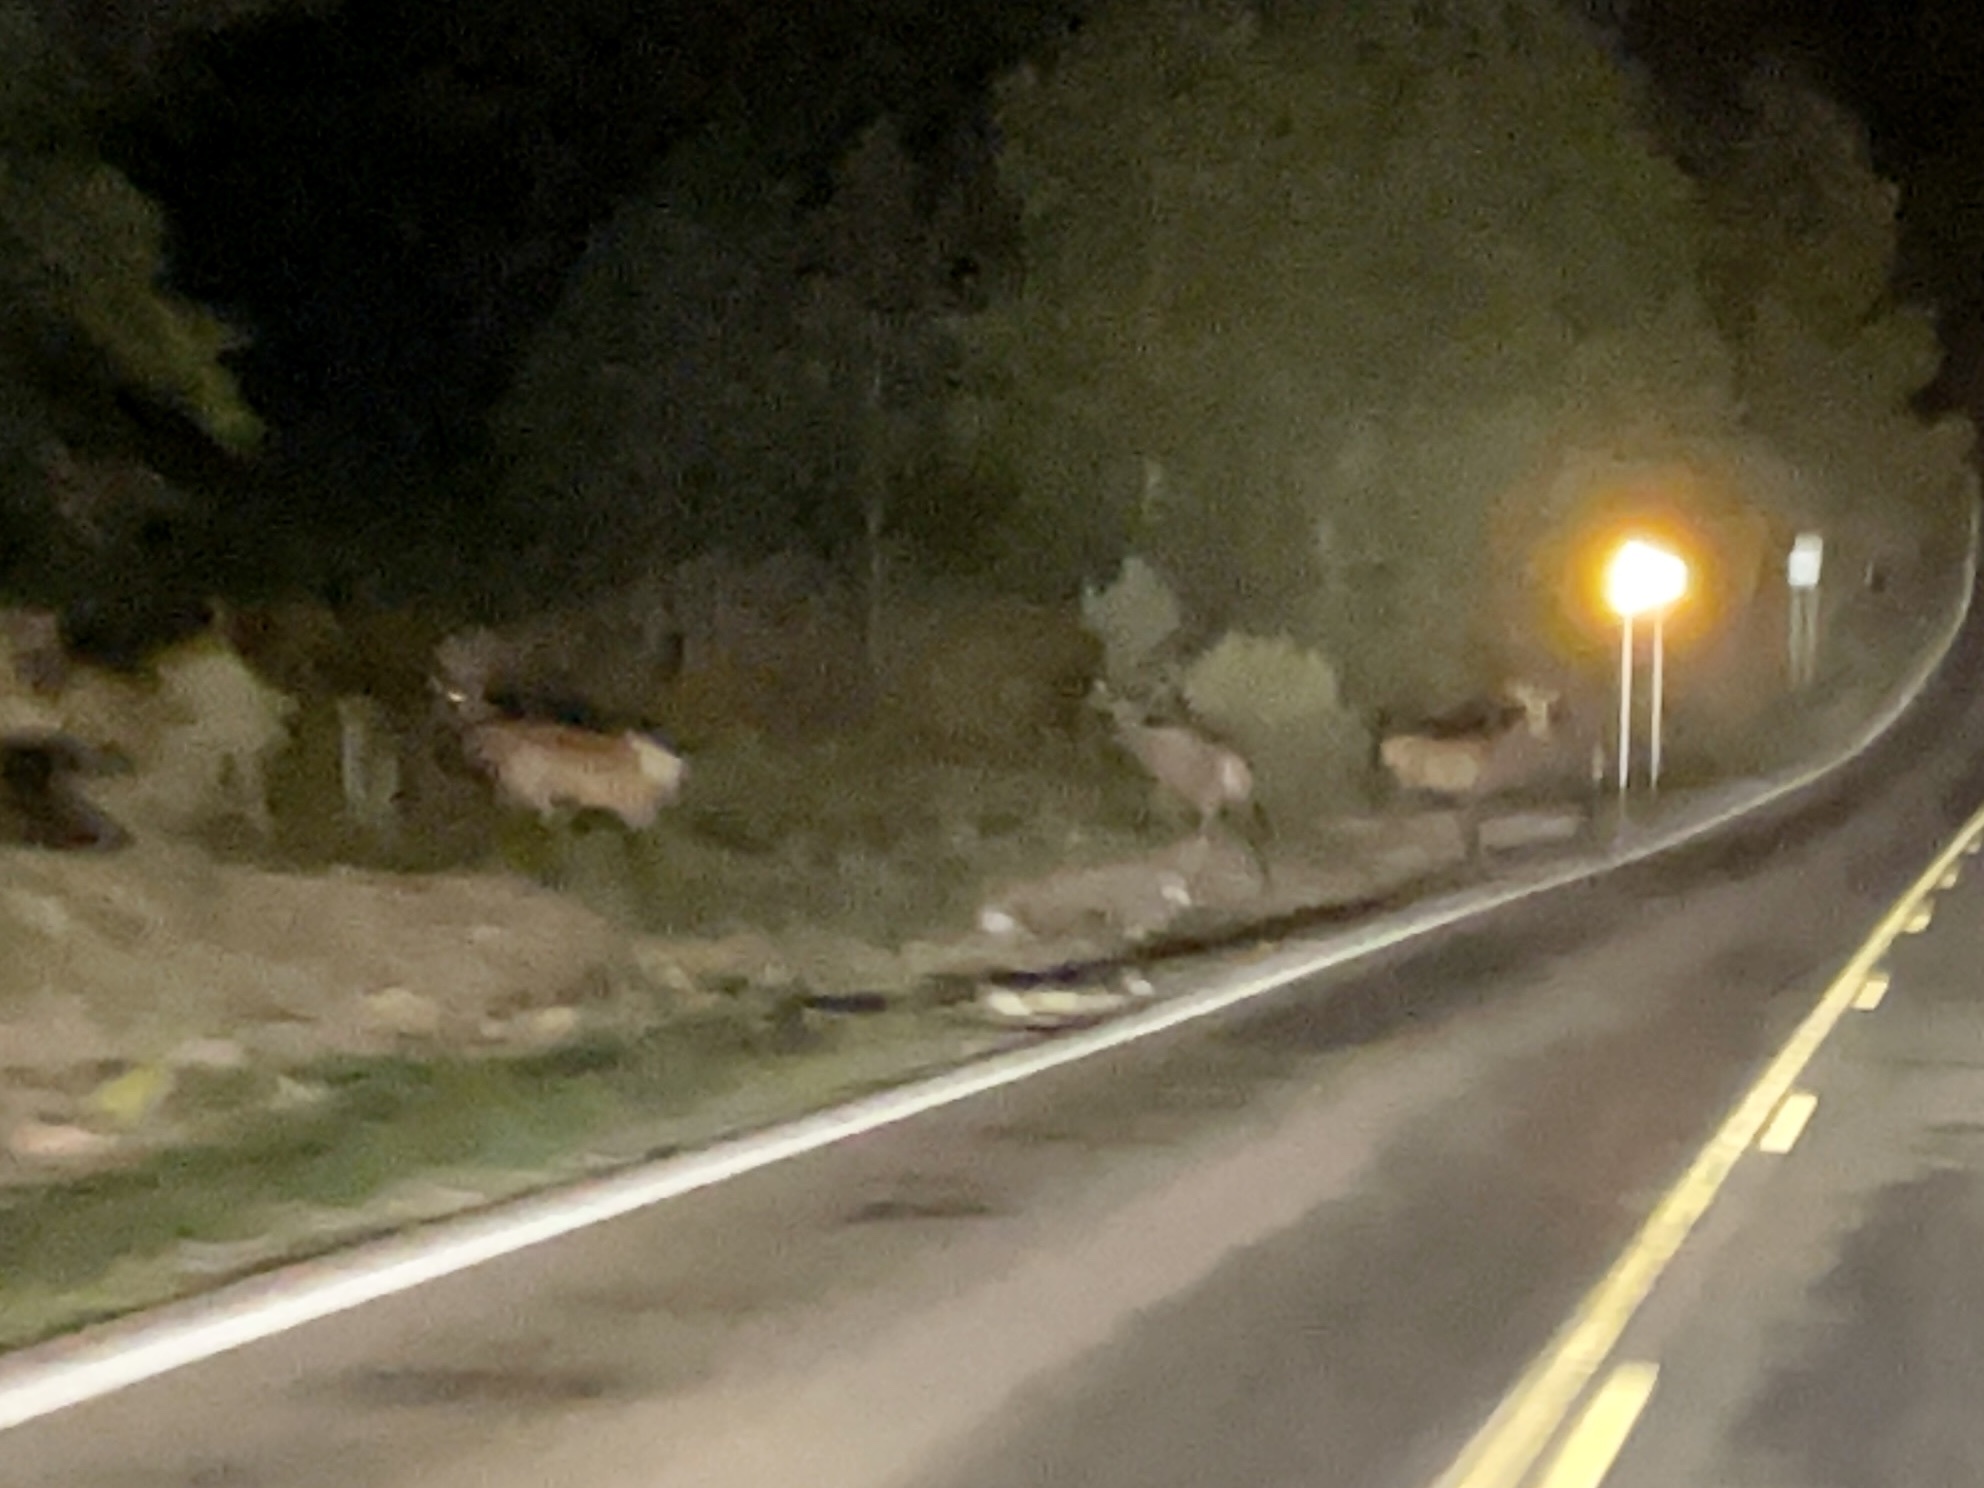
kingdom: Animalia
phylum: Chordata
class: Mammalia
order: Artiodactyla
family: Cervidae
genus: Cervus
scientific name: Cervus elaphus
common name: Red deer
